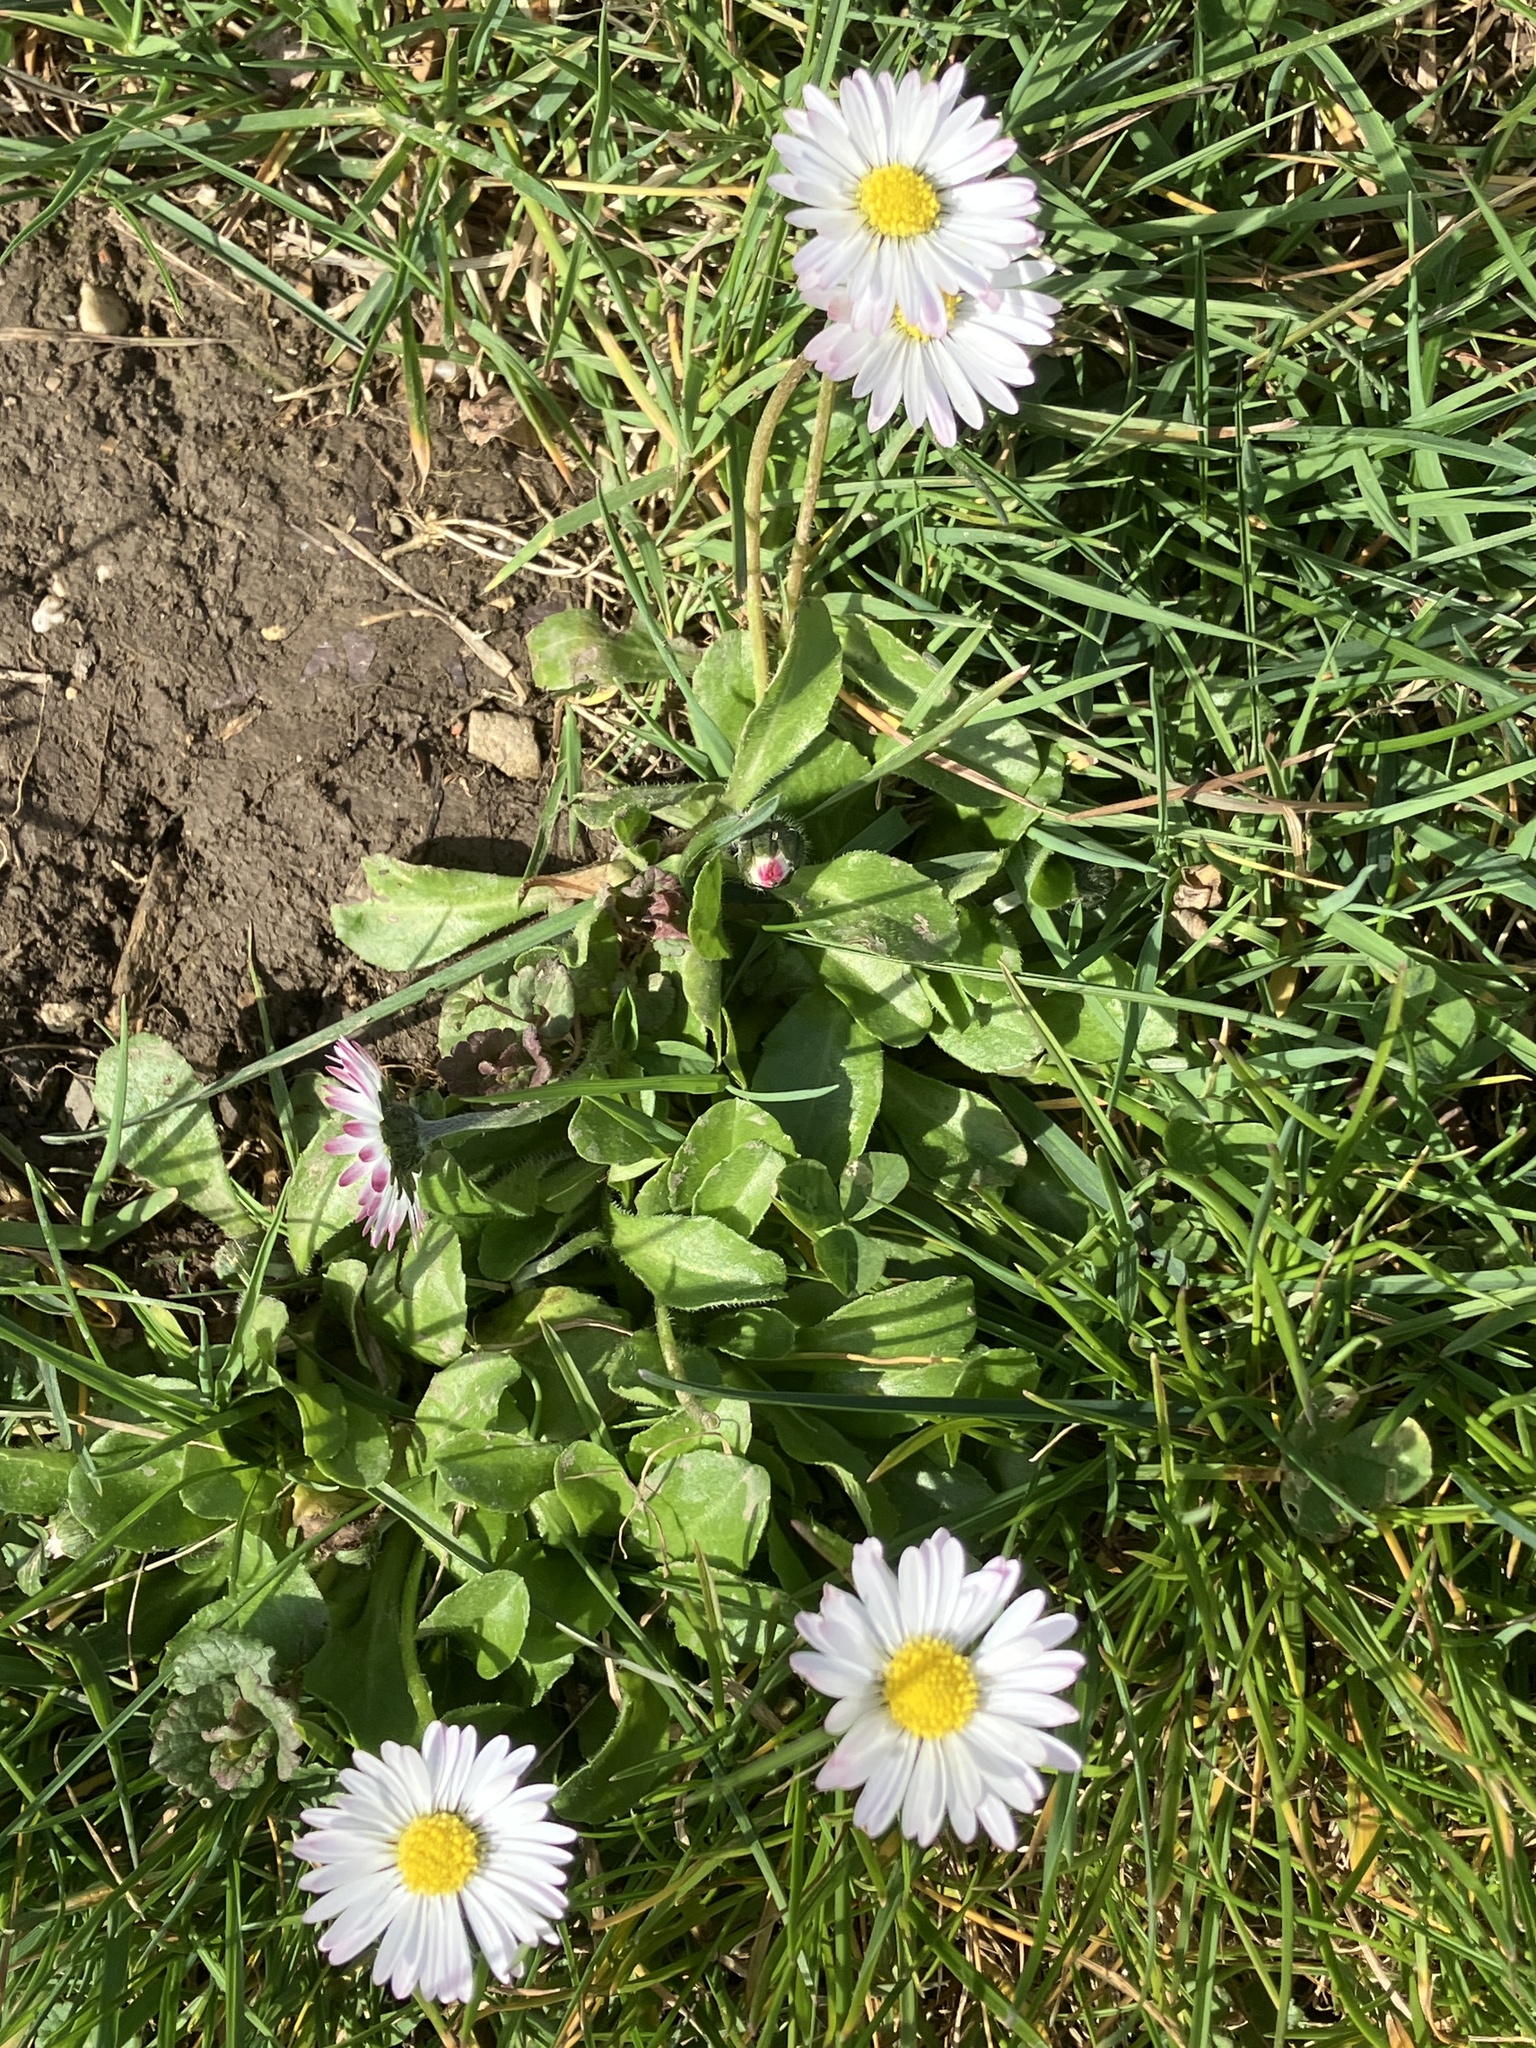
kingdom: Plantae
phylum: Tracheophyta
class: Magnoliopsida
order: Asterales
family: Asteraceae
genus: Bellis
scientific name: Bellis perennis
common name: Lawndaisy
